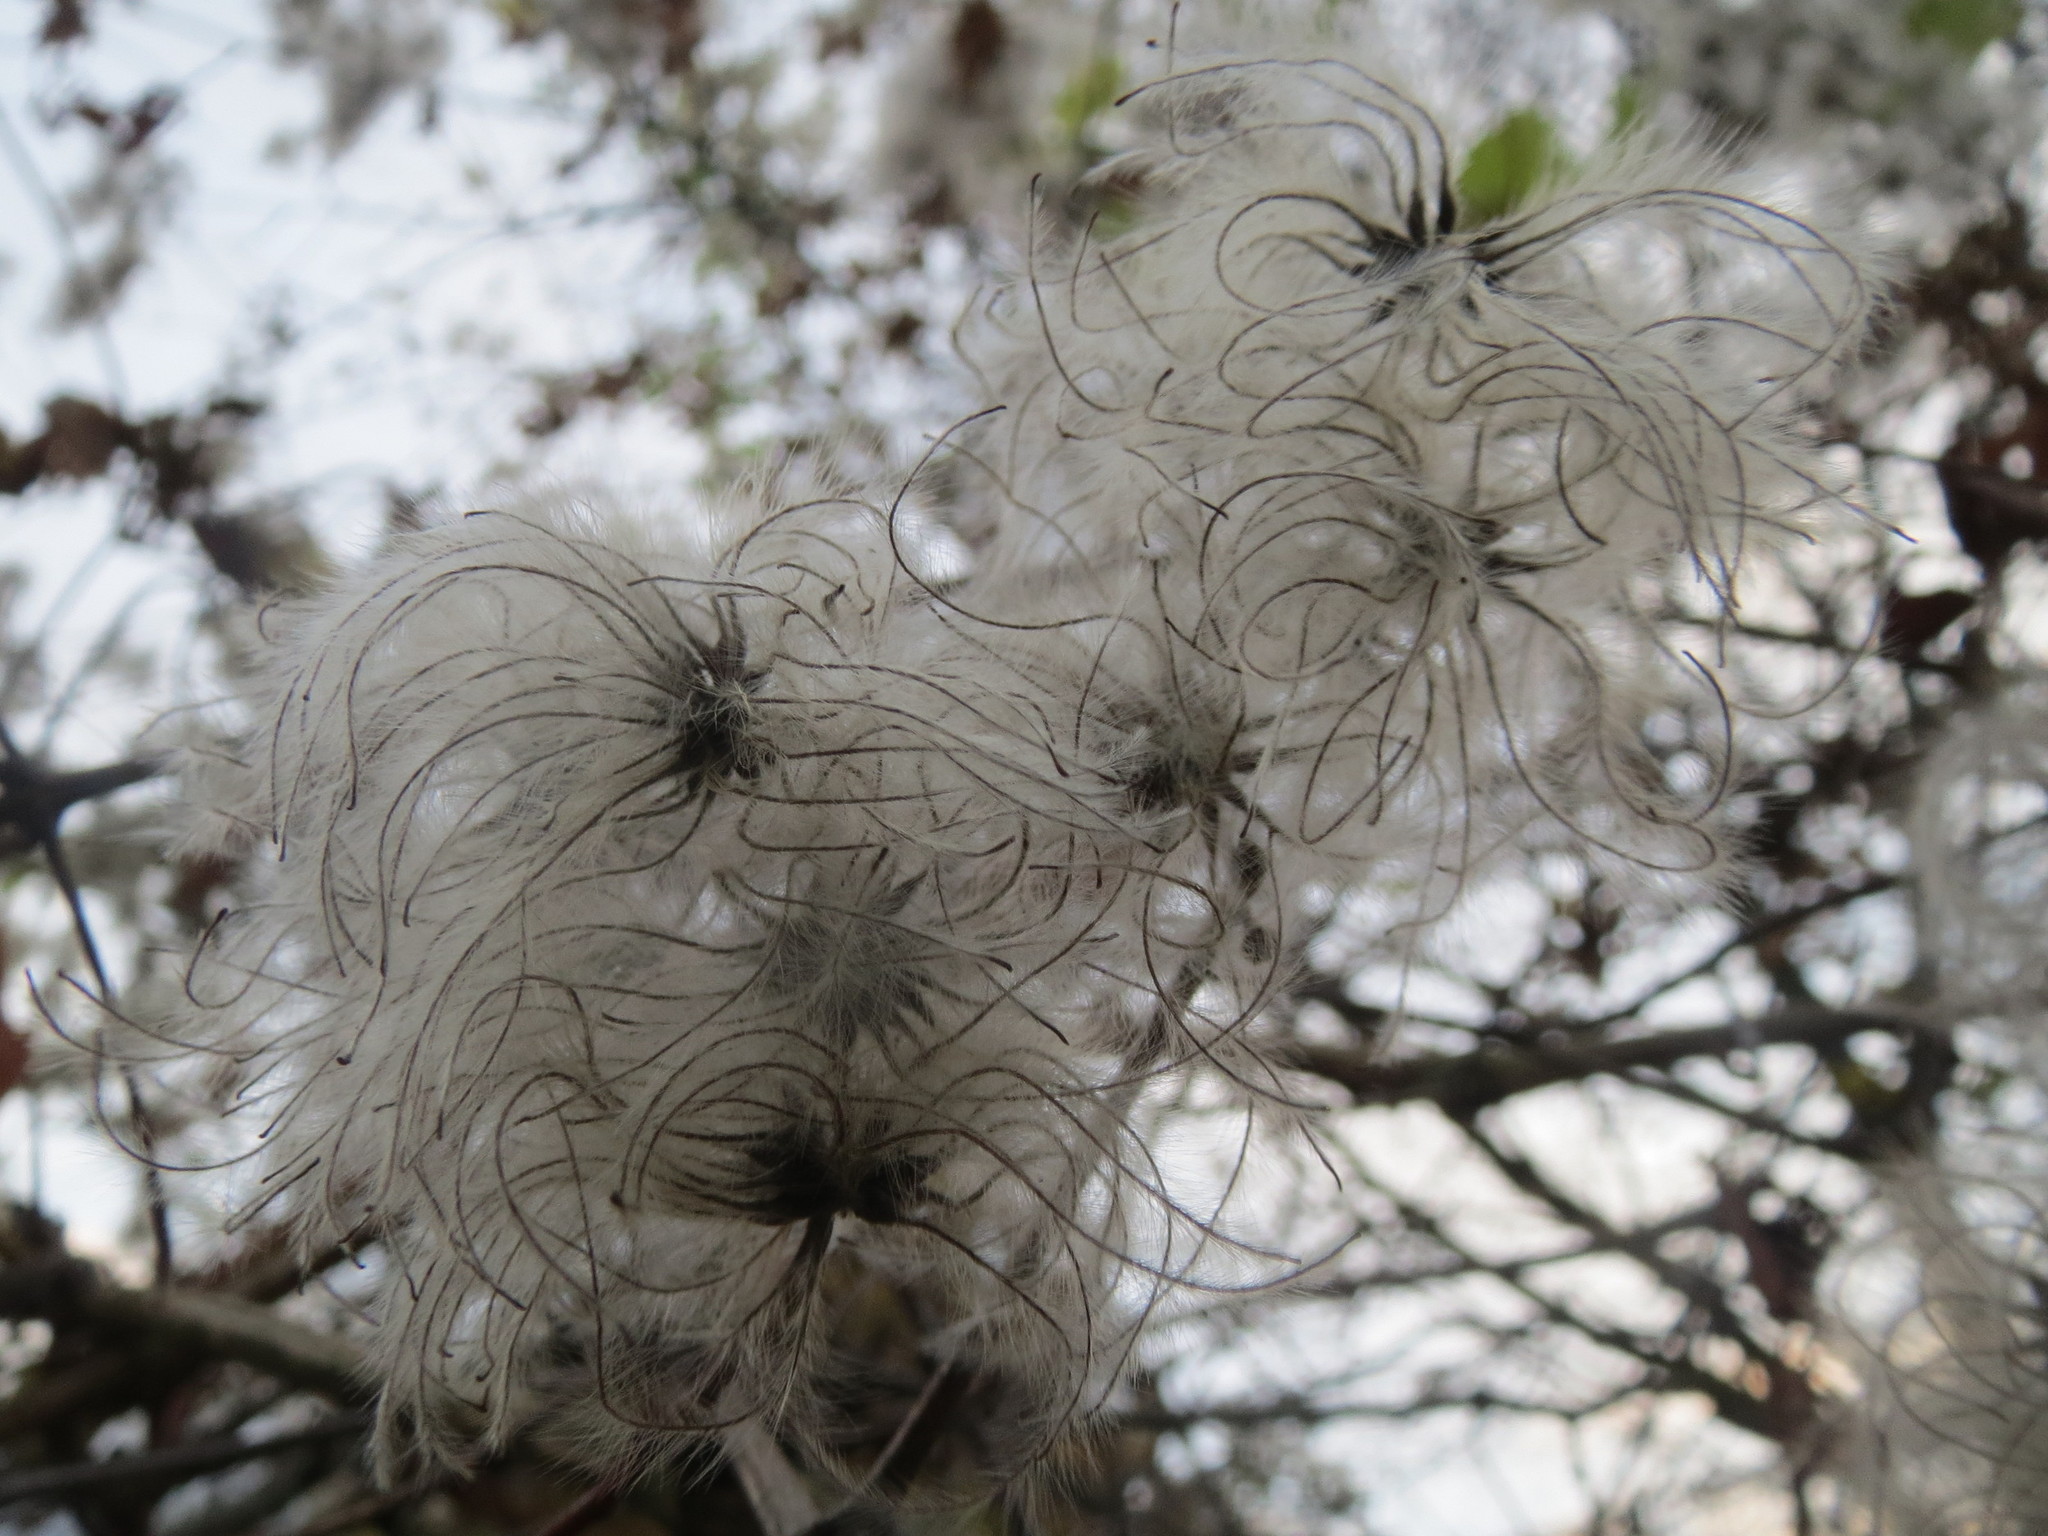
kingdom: Plantae
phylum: Tracheophyta
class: Magnoliopsida
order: Ranunculales
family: Ranunculaceae
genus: Clematis
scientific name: Clematis vitalba
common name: Evergreen clematis
